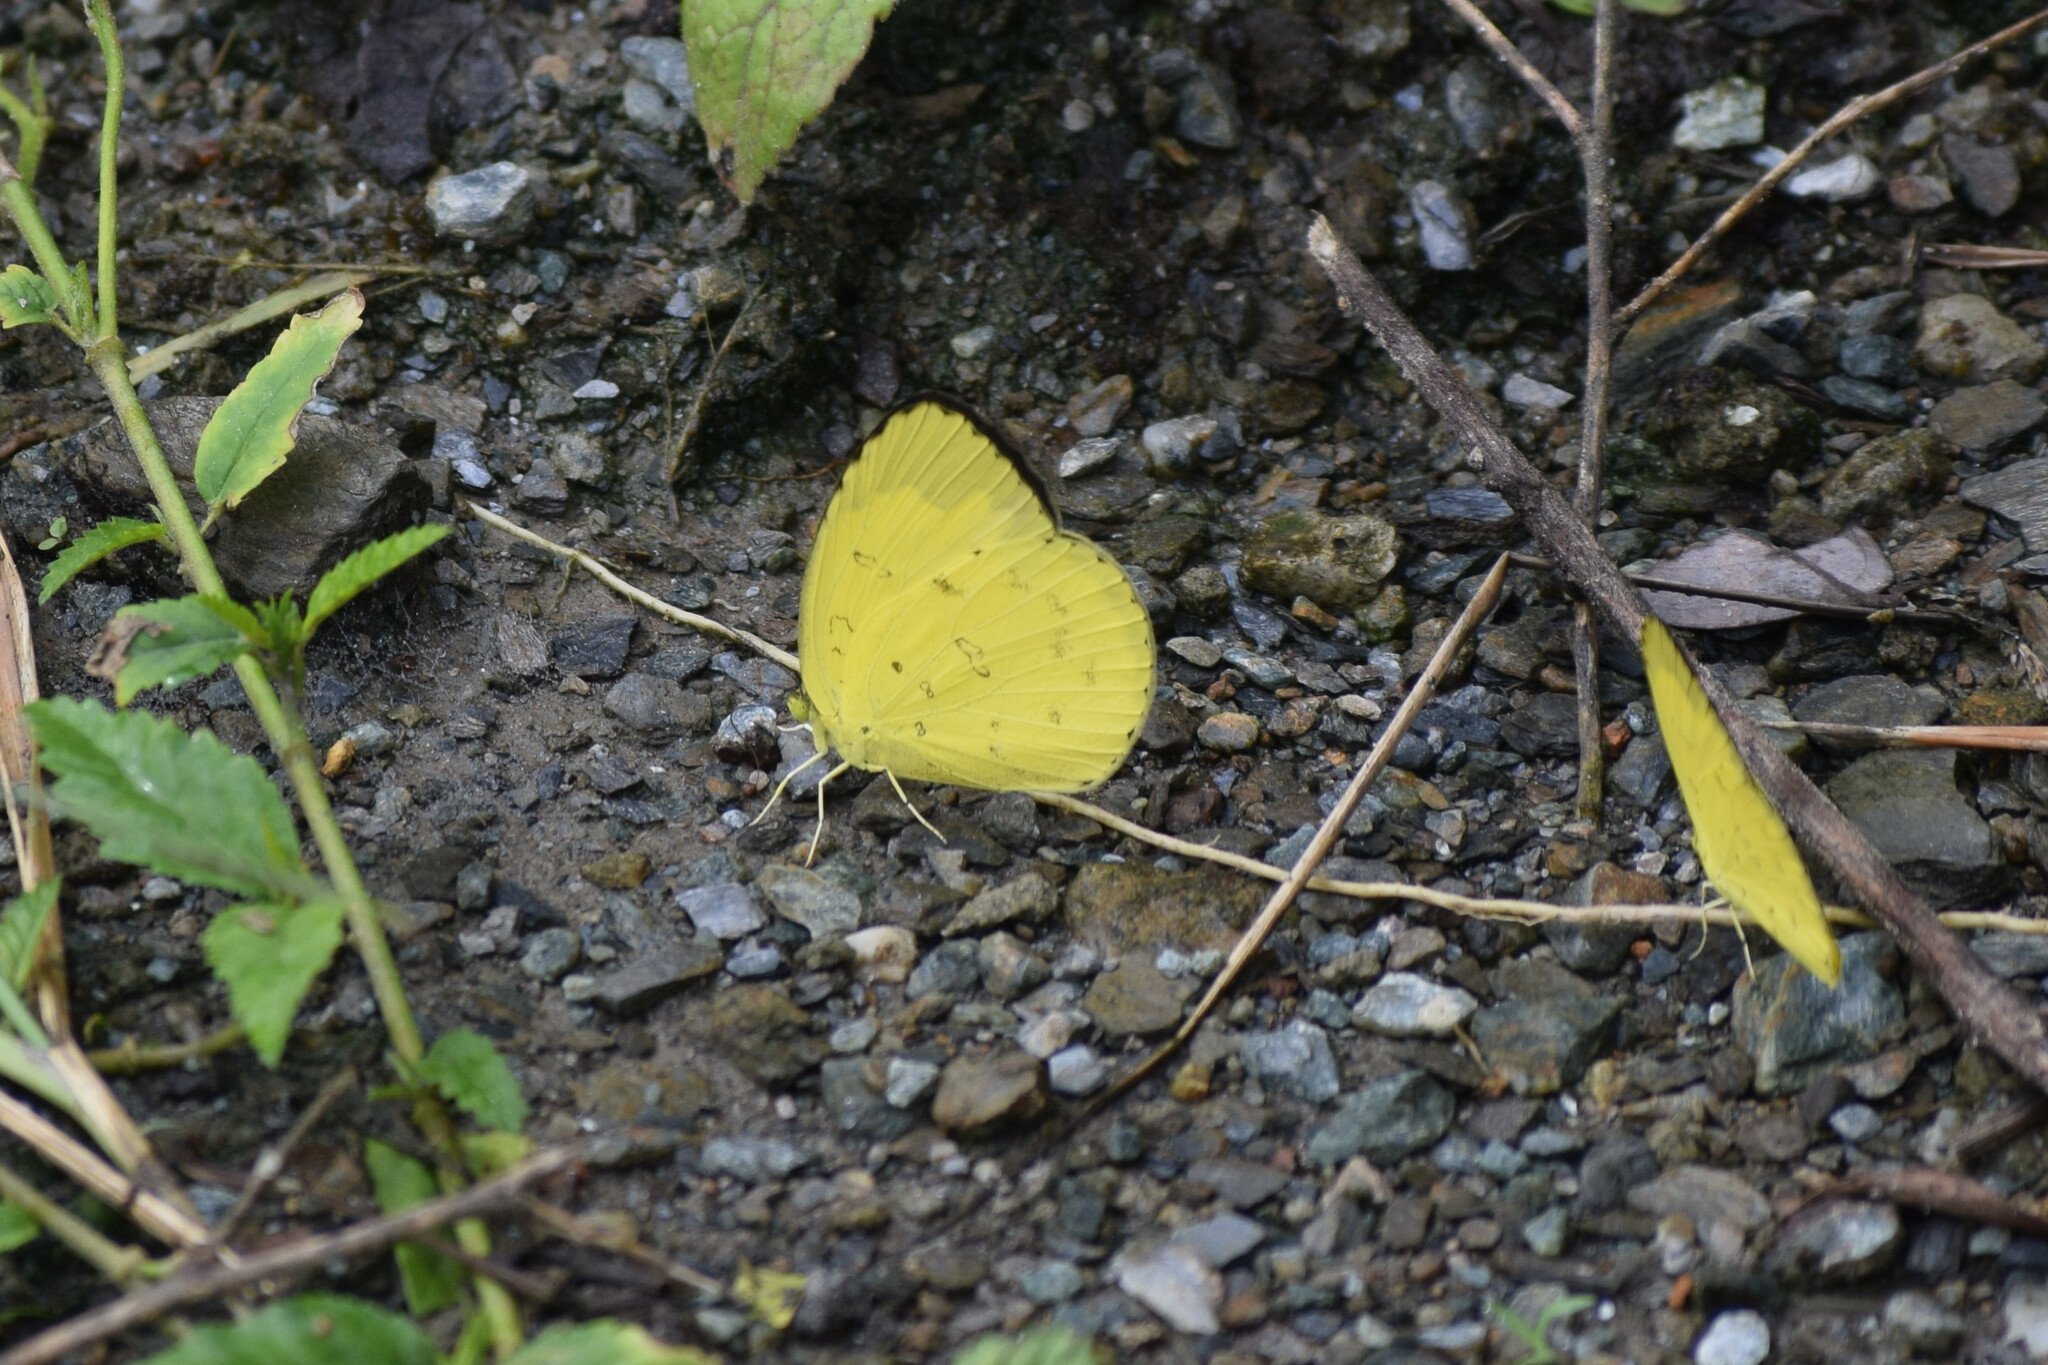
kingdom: Animalia
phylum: Arthropoda
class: Insecta
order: Lepidoptera
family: Pieridae
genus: Eurema
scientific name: Eurema blanda
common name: Three-spot grass yellow
